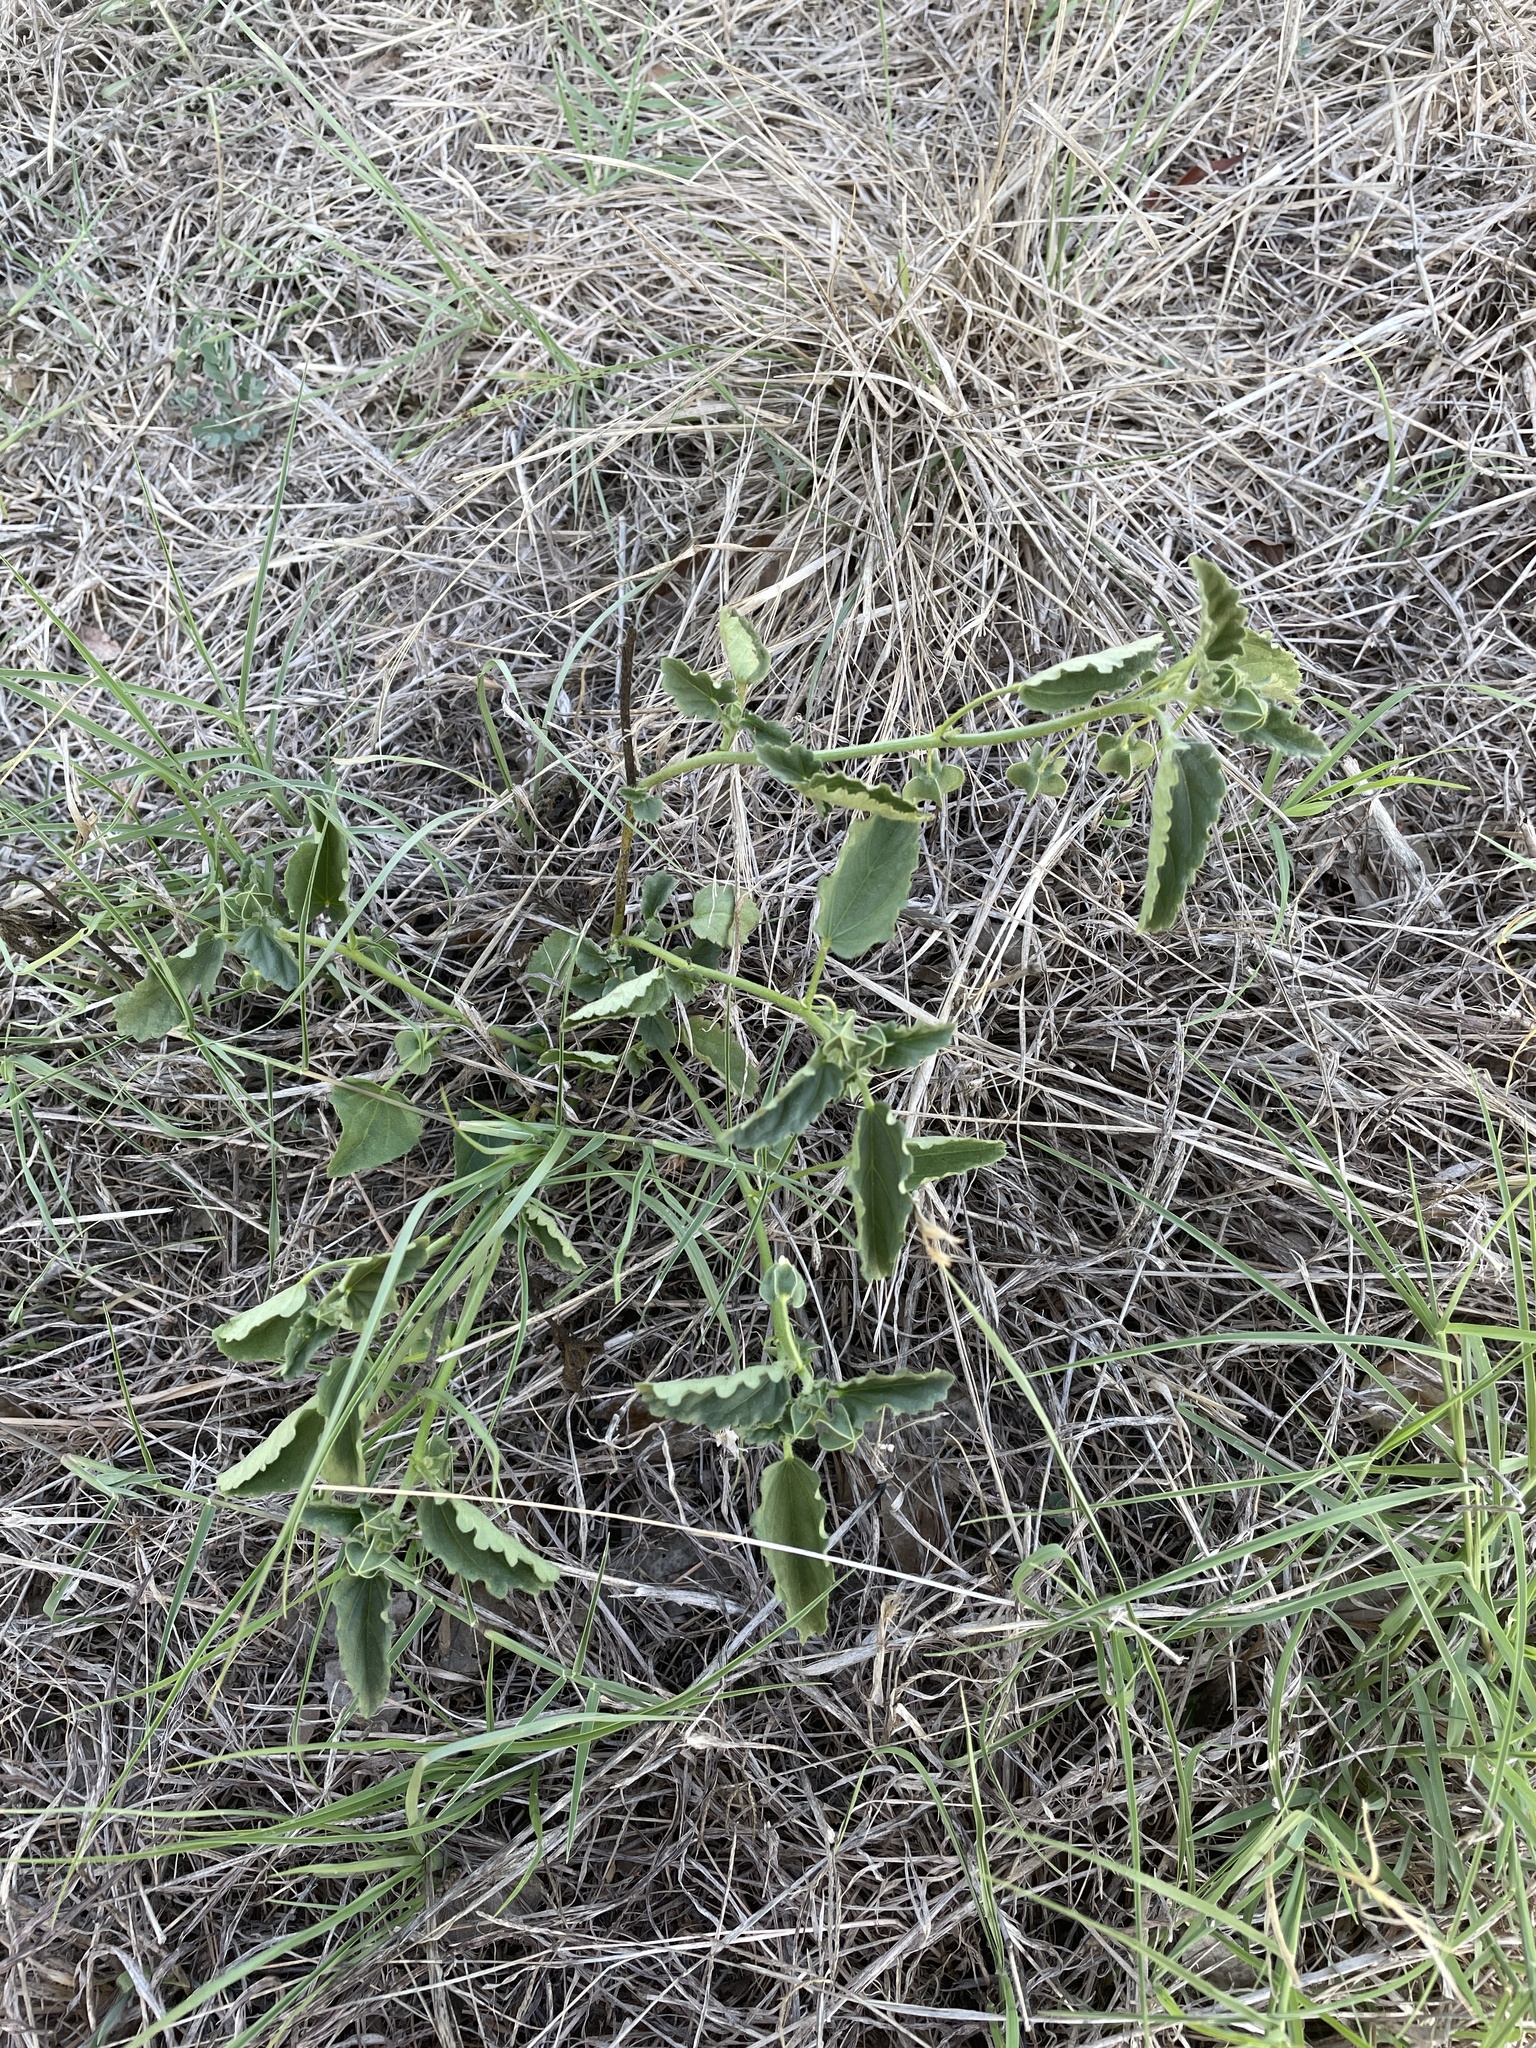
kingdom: Plantae
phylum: Tracheophyta
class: Magnoliopsida
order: Malvales
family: Malvaceae
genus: Rhynchosida
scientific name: Rhynchosida physocalyx
